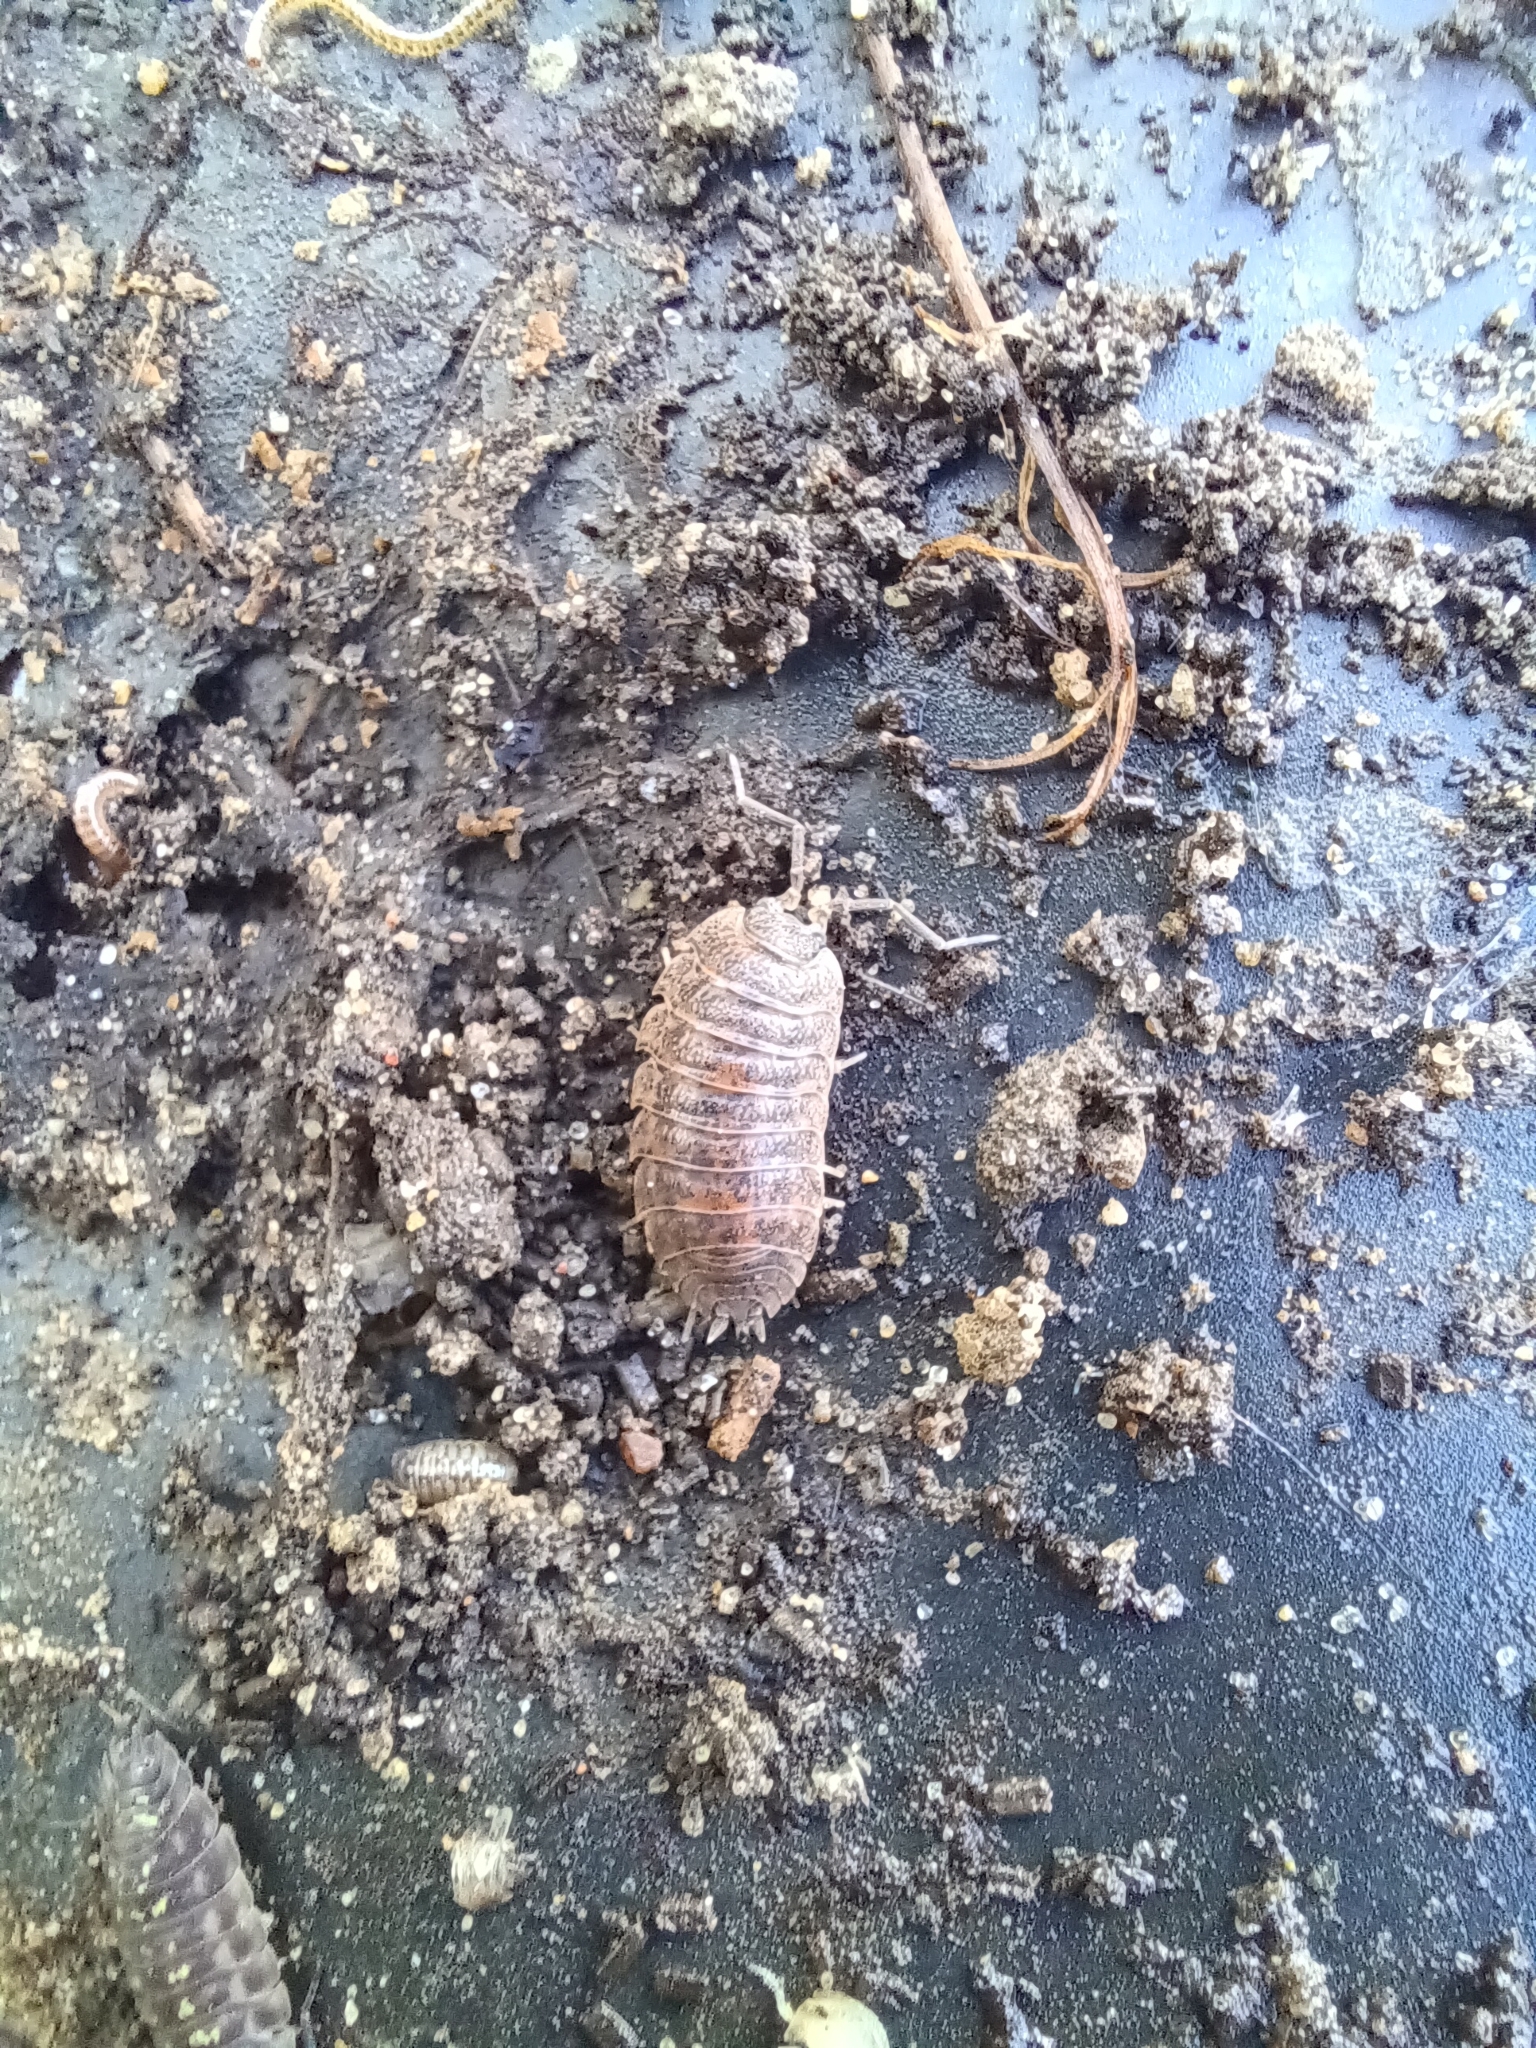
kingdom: Animalia
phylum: Arthropoda
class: Malacostraca
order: Isopoda
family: Trachelipodidae
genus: Trachelipus
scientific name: Trachelipus rathkii
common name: Isopod
